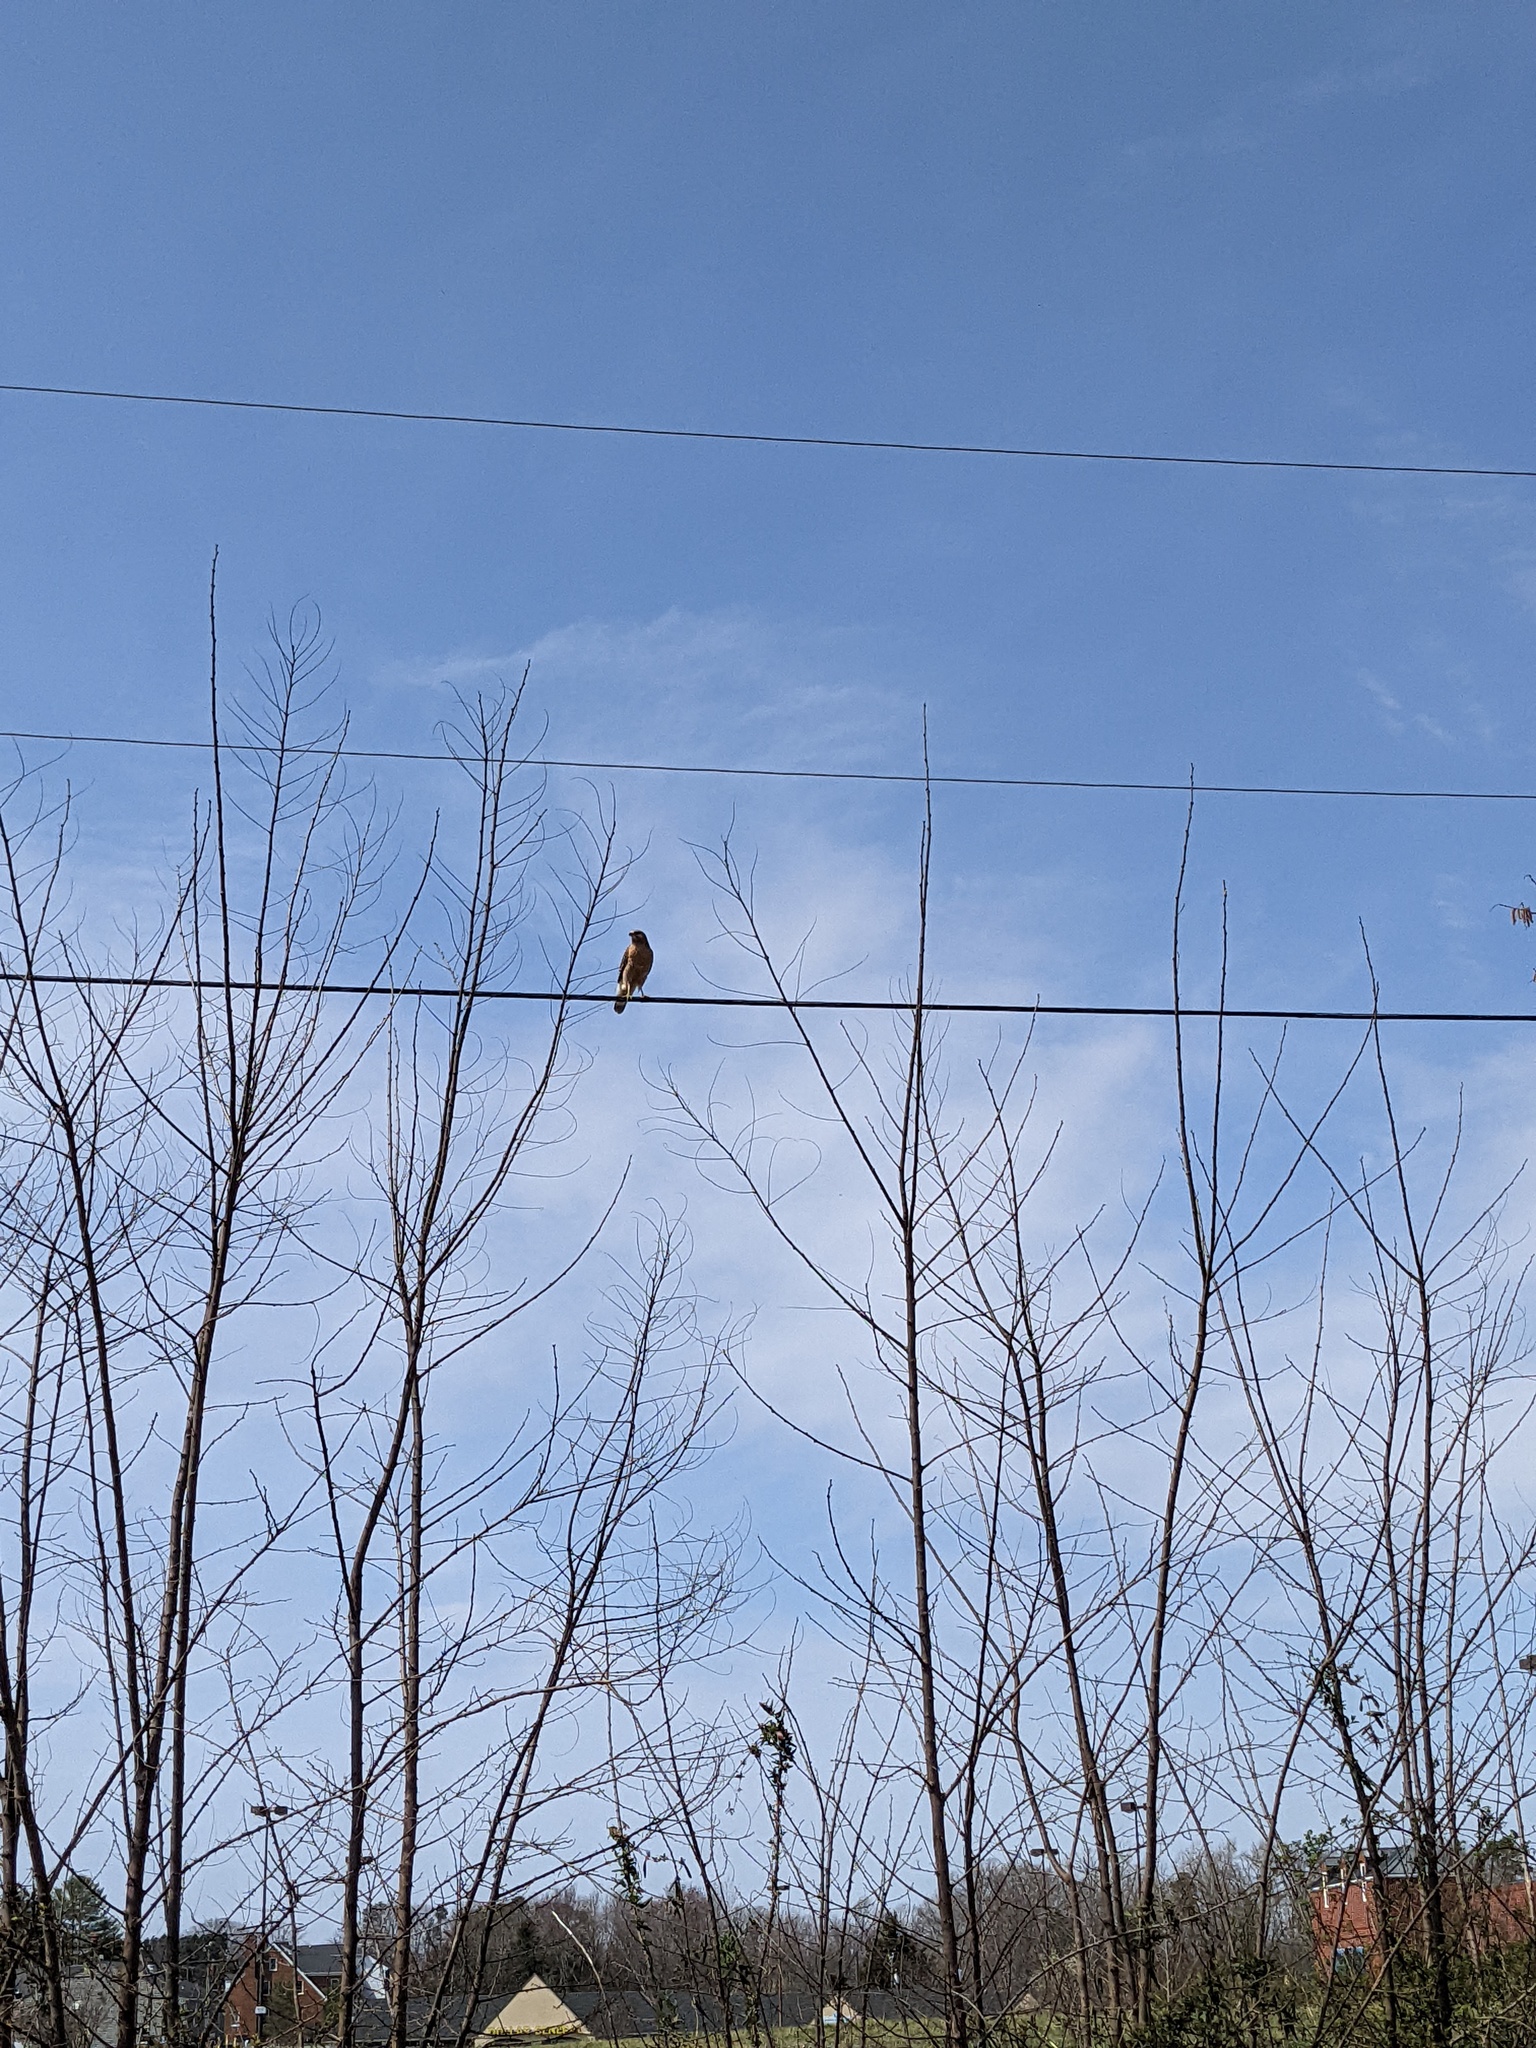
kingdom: Animalia
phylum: Chordata
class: Aves
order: Accipitriformes
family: Accipitridae
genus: Buteo
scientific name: Buteo lineatus
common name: Red-shouldered hawk
